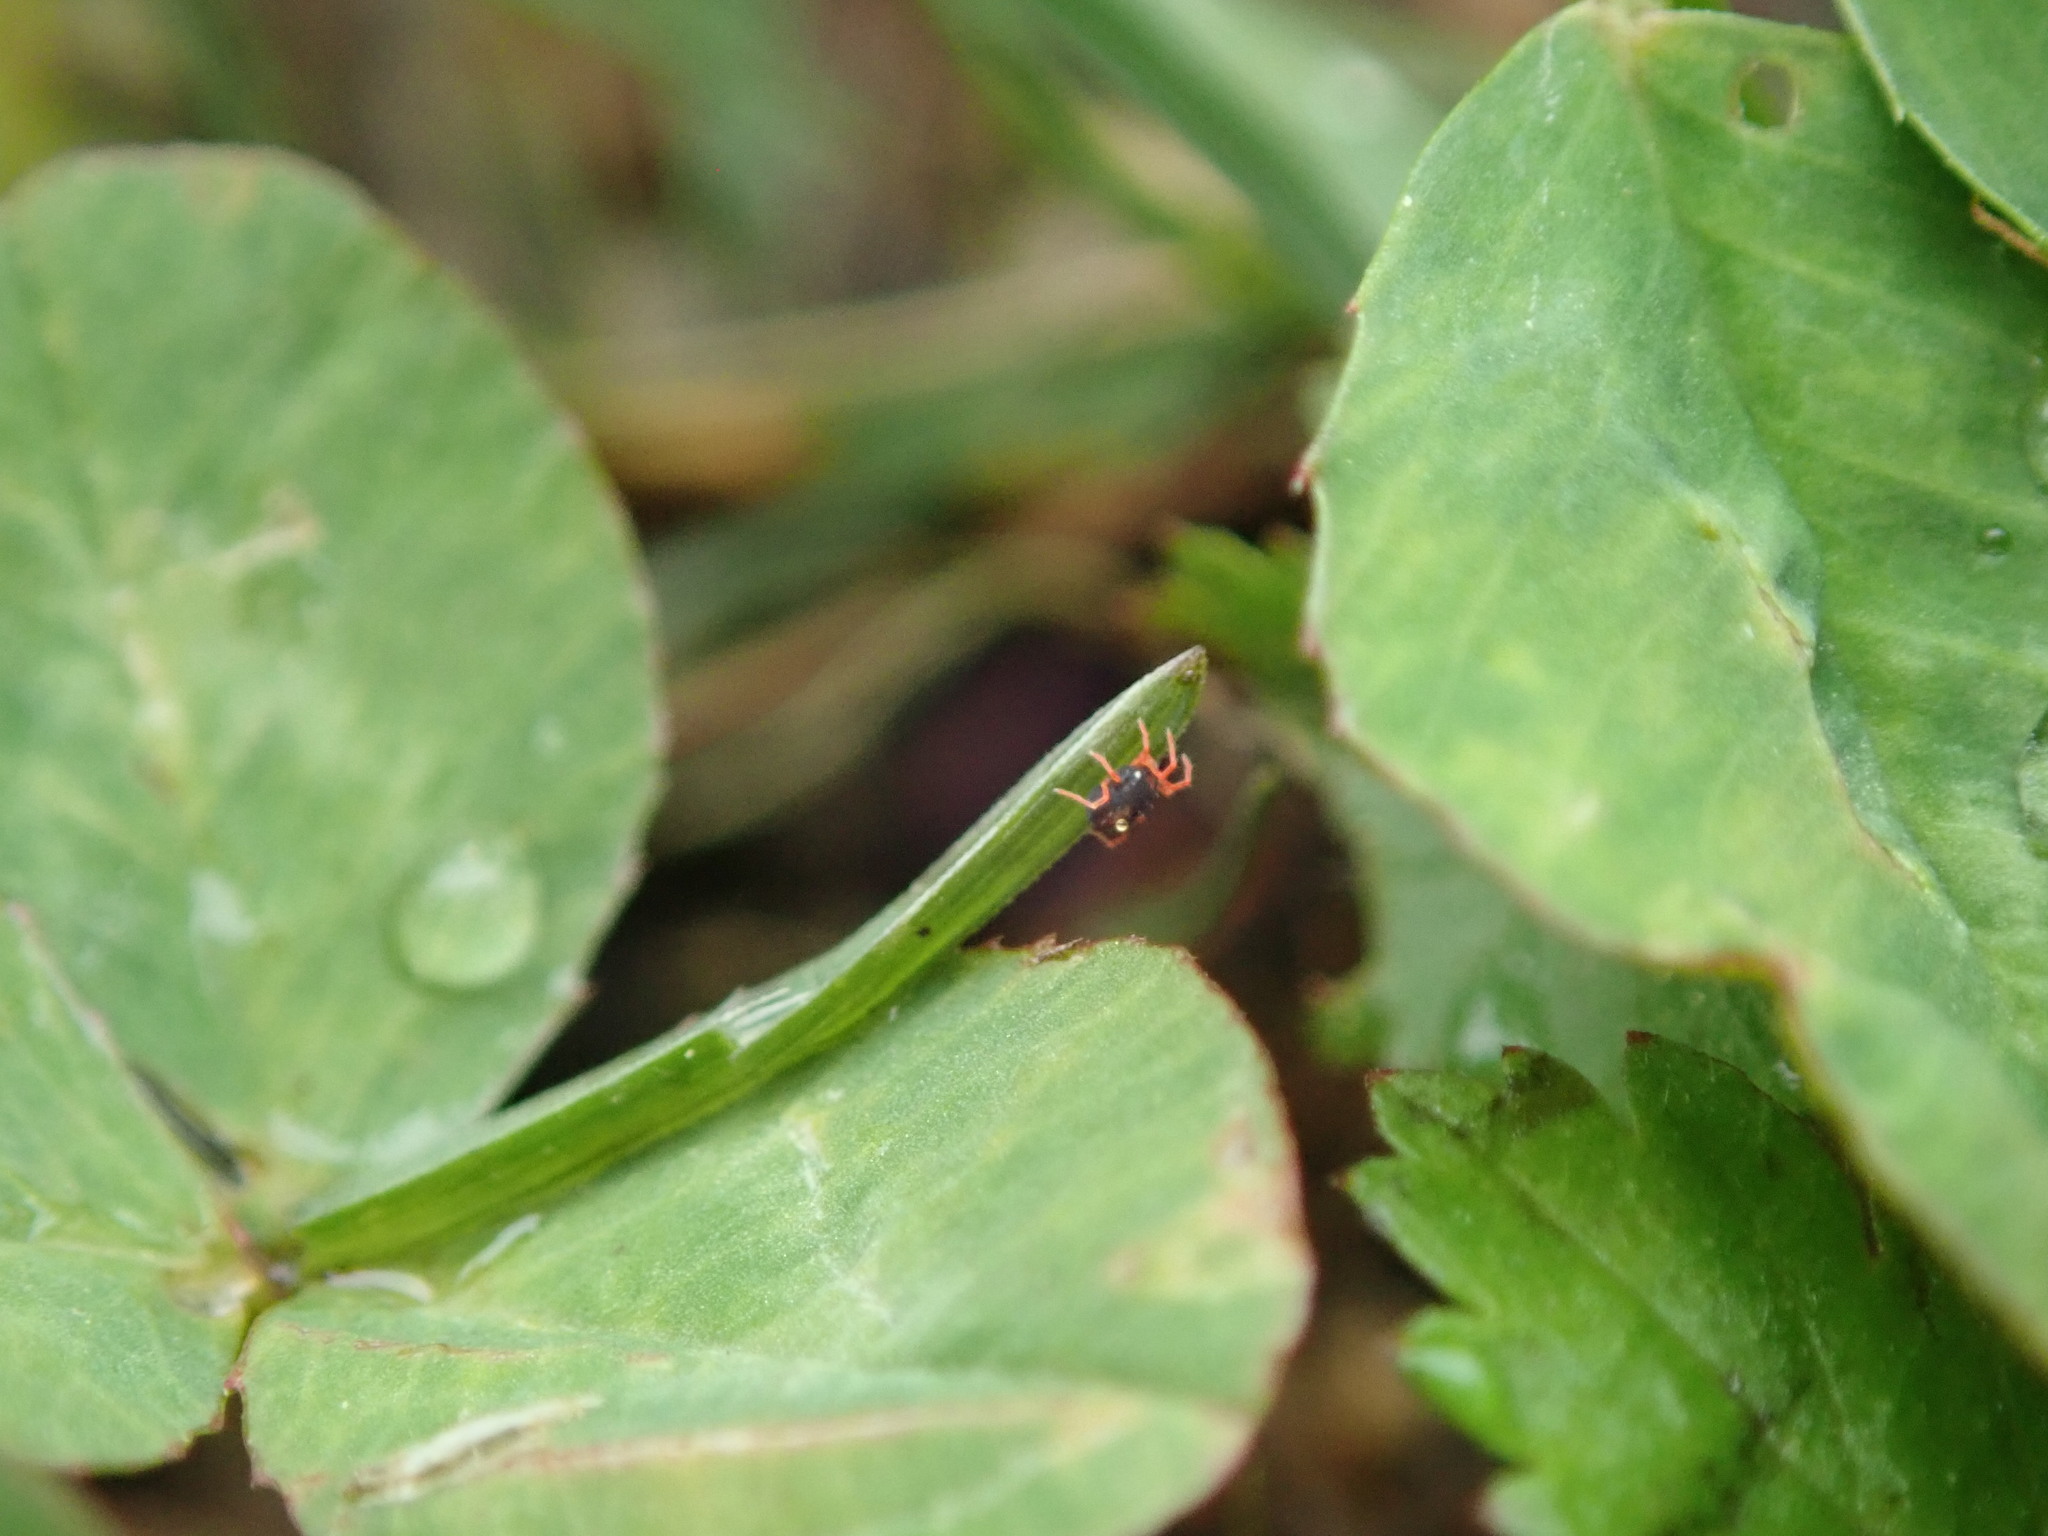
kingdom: Animalia
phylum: Arthropoda
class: Arachnida
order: Trombidiformes
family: Penthaleidae
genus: Penthaleus
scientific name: Penthaleus major
